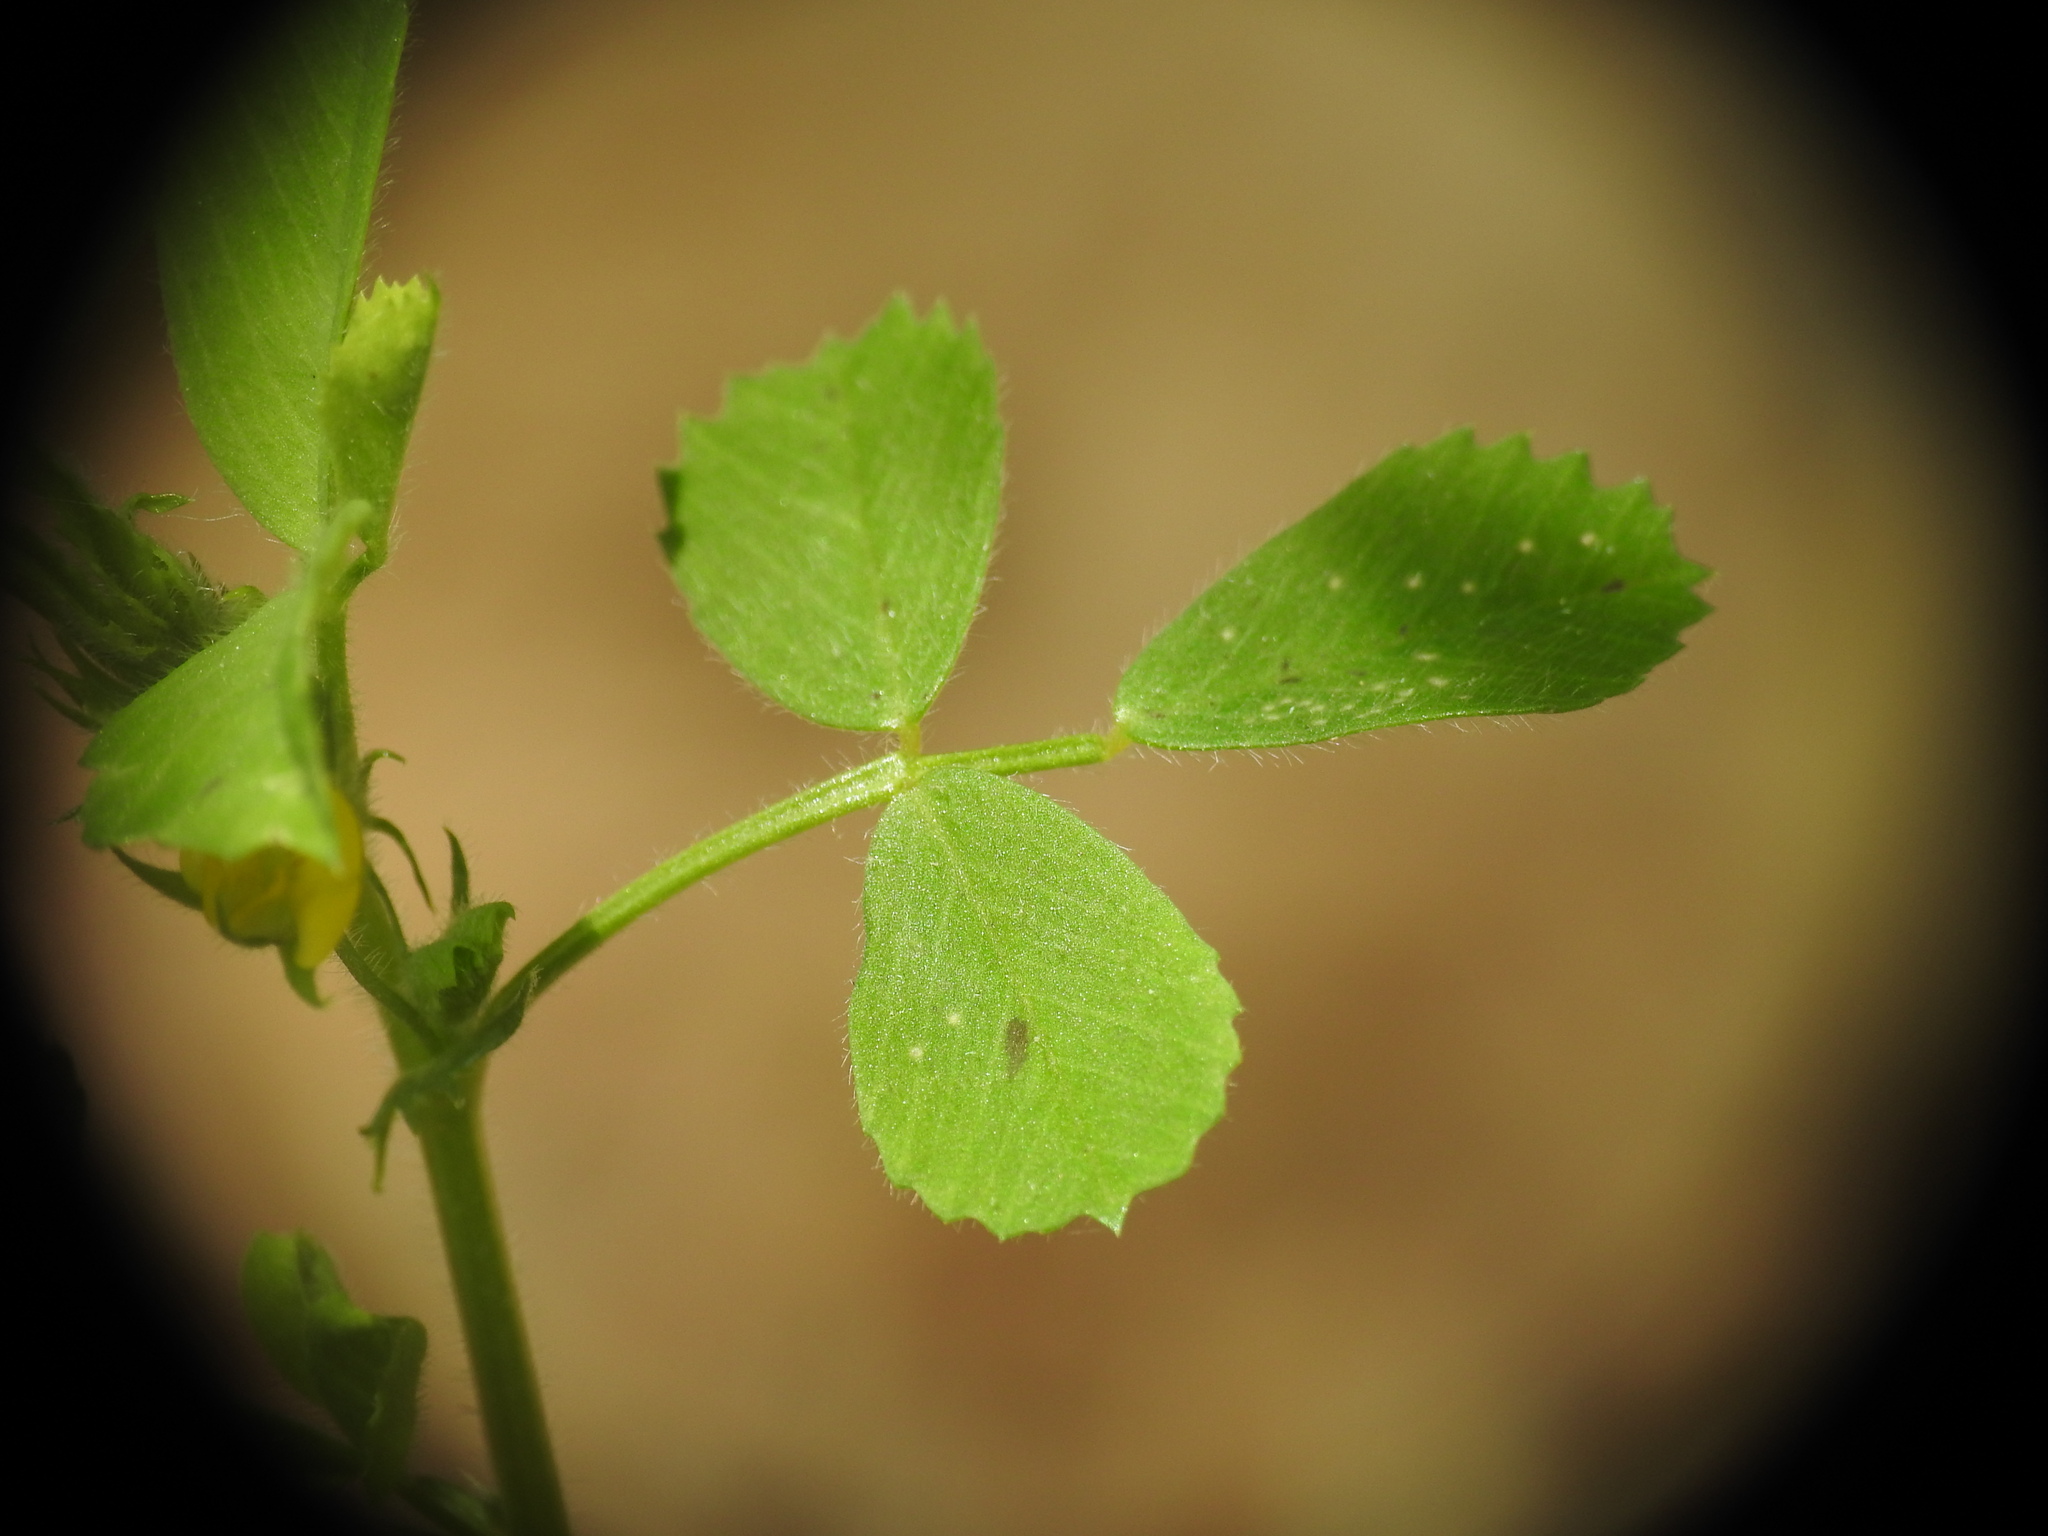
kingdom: Plantae
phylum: Tracheophyta
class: Magnoliopsida
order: Fabales
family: Fabaceae
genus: Medicago
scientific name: Medicago truncatula
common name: Strong-spined medick
